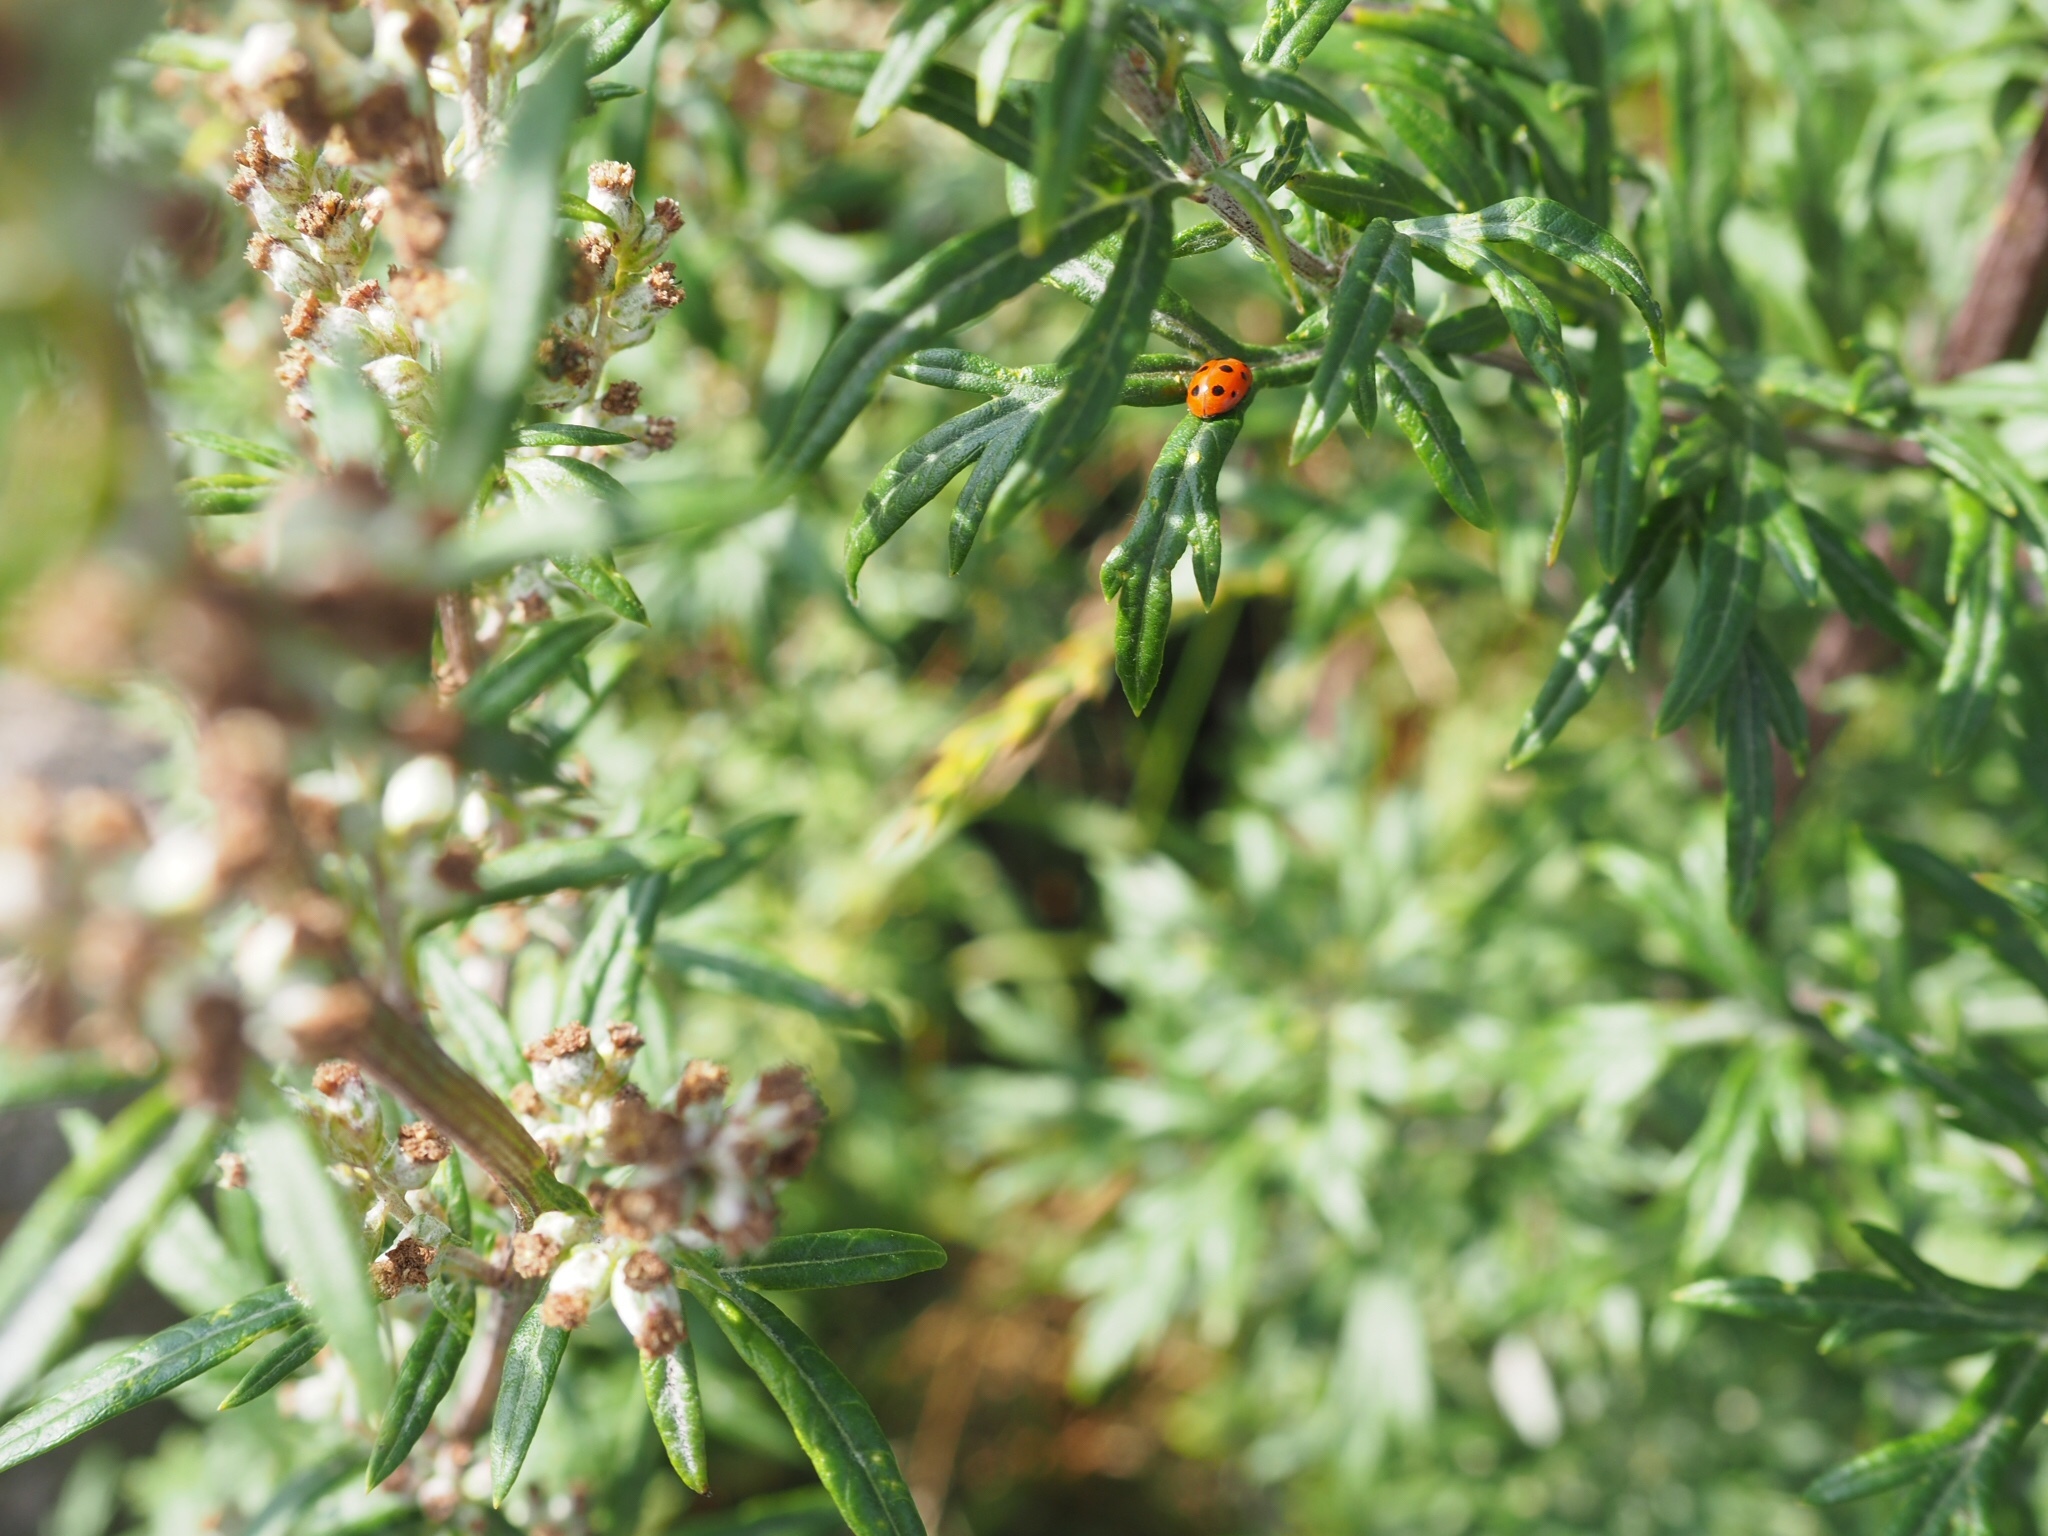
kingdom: Animalia
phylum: Arthropoda
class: Insecta
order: Coleoptera
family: Coccinellidae
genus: Coccinella
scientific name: Coccinella undecimpunctata
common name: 11-spot ladybird
